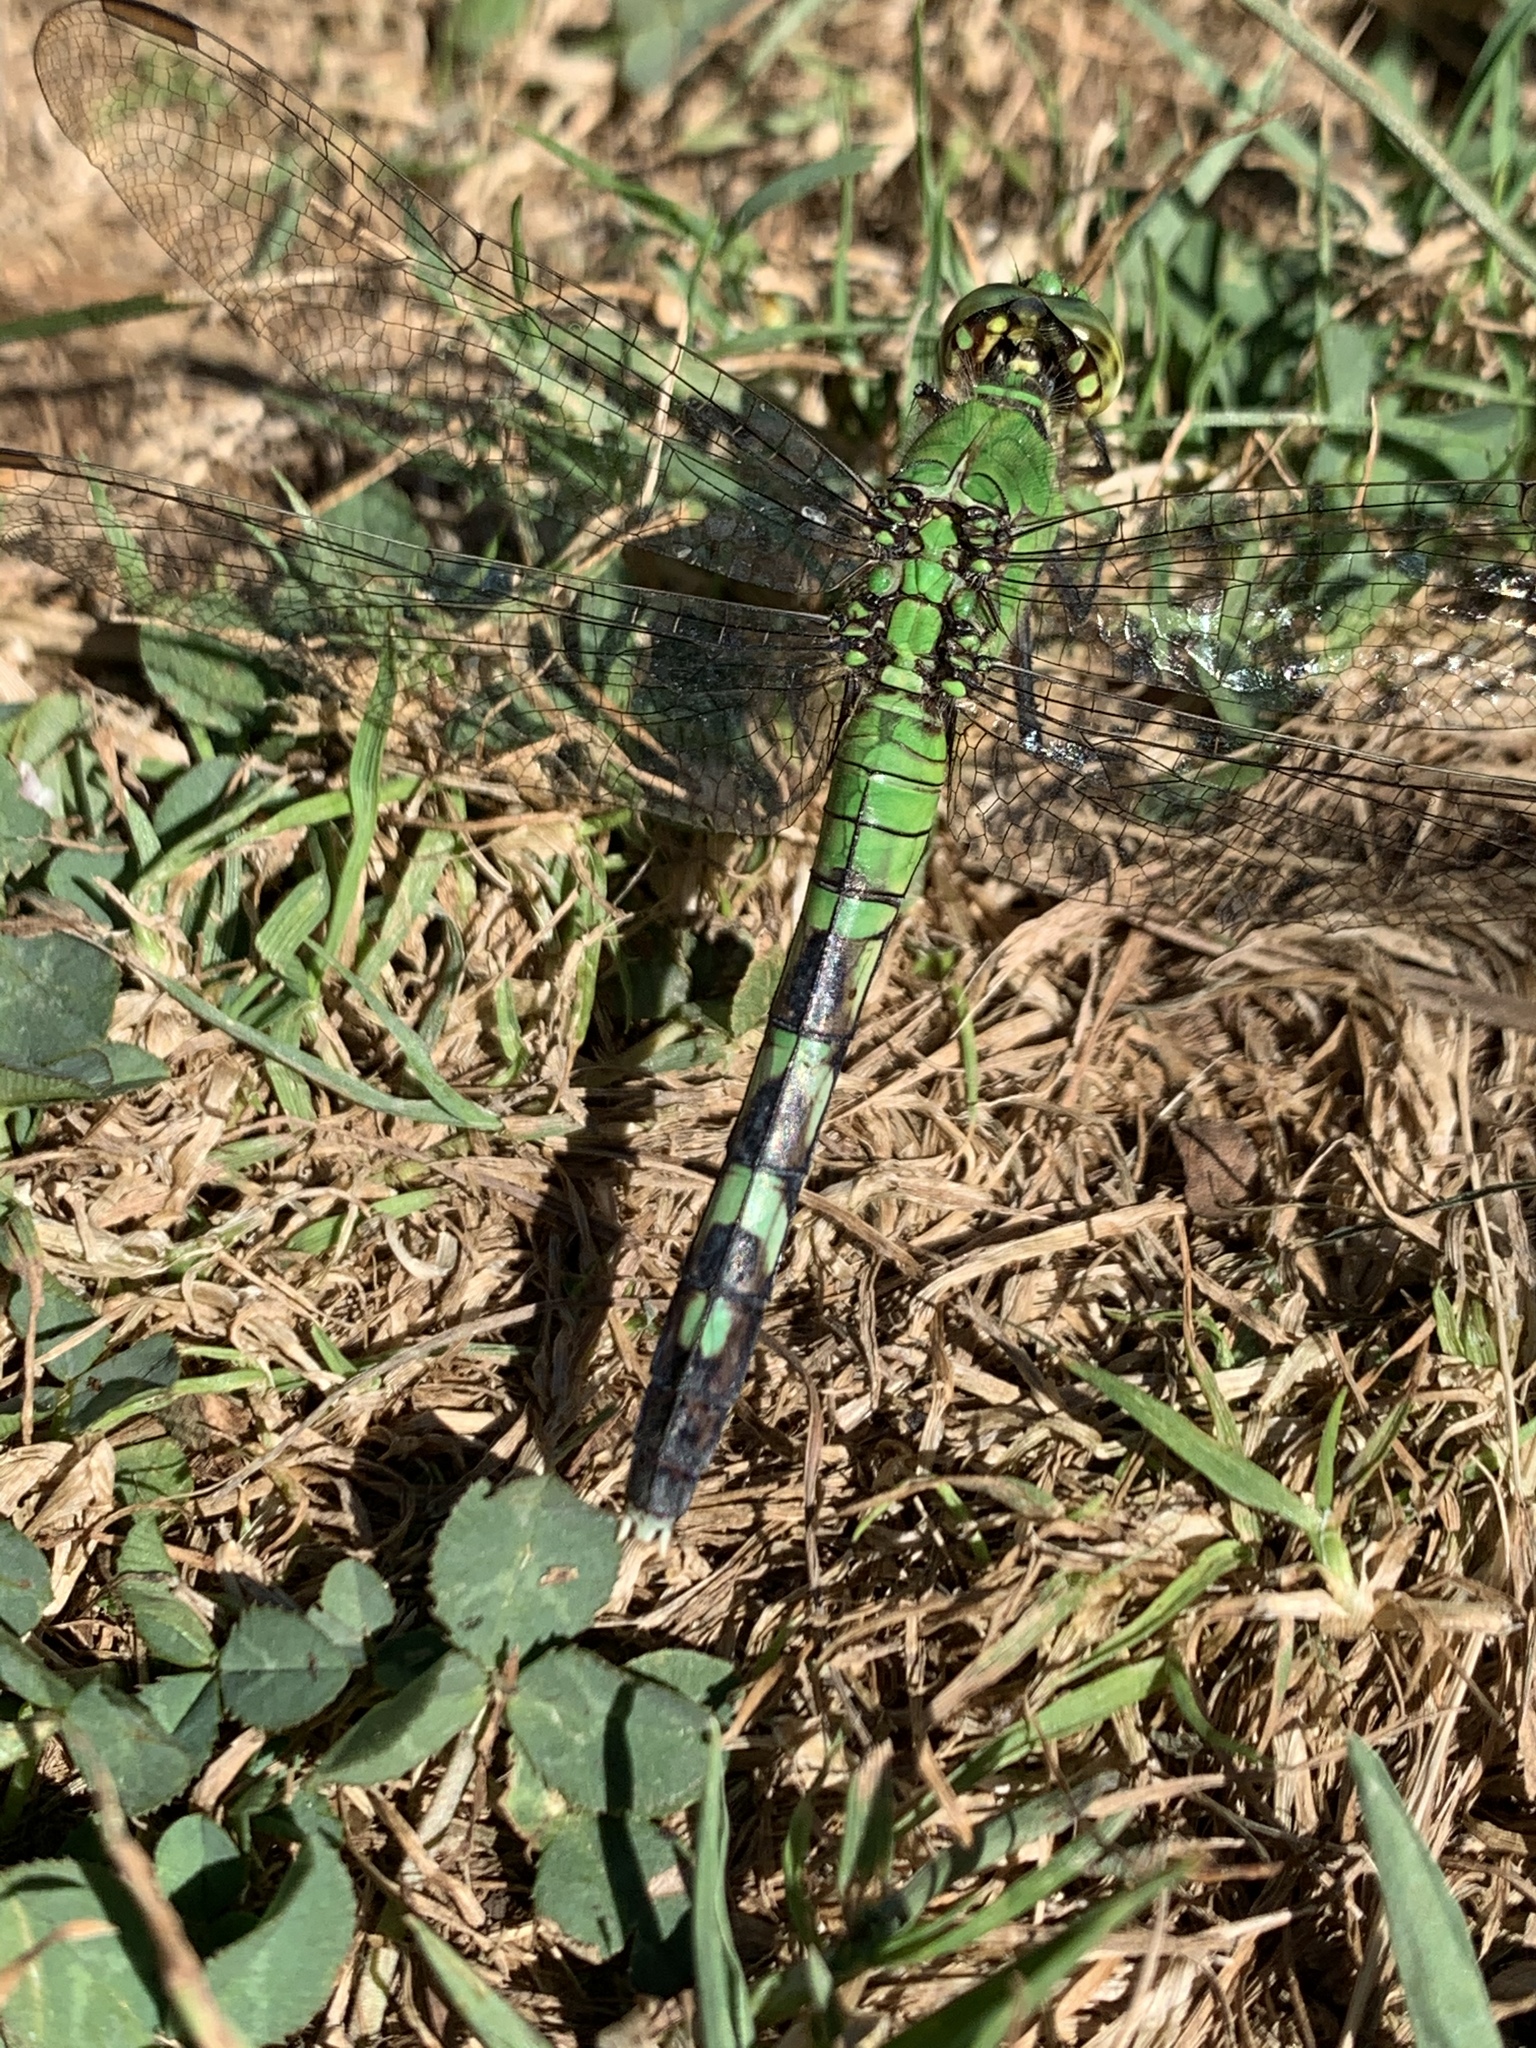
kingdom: Animalia
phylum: Arthropoda
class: Insecta
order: Odonata
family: Libellulidae
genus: Erythemis
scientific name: Erythemis simplicicollis
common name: Eastern pondhawk
